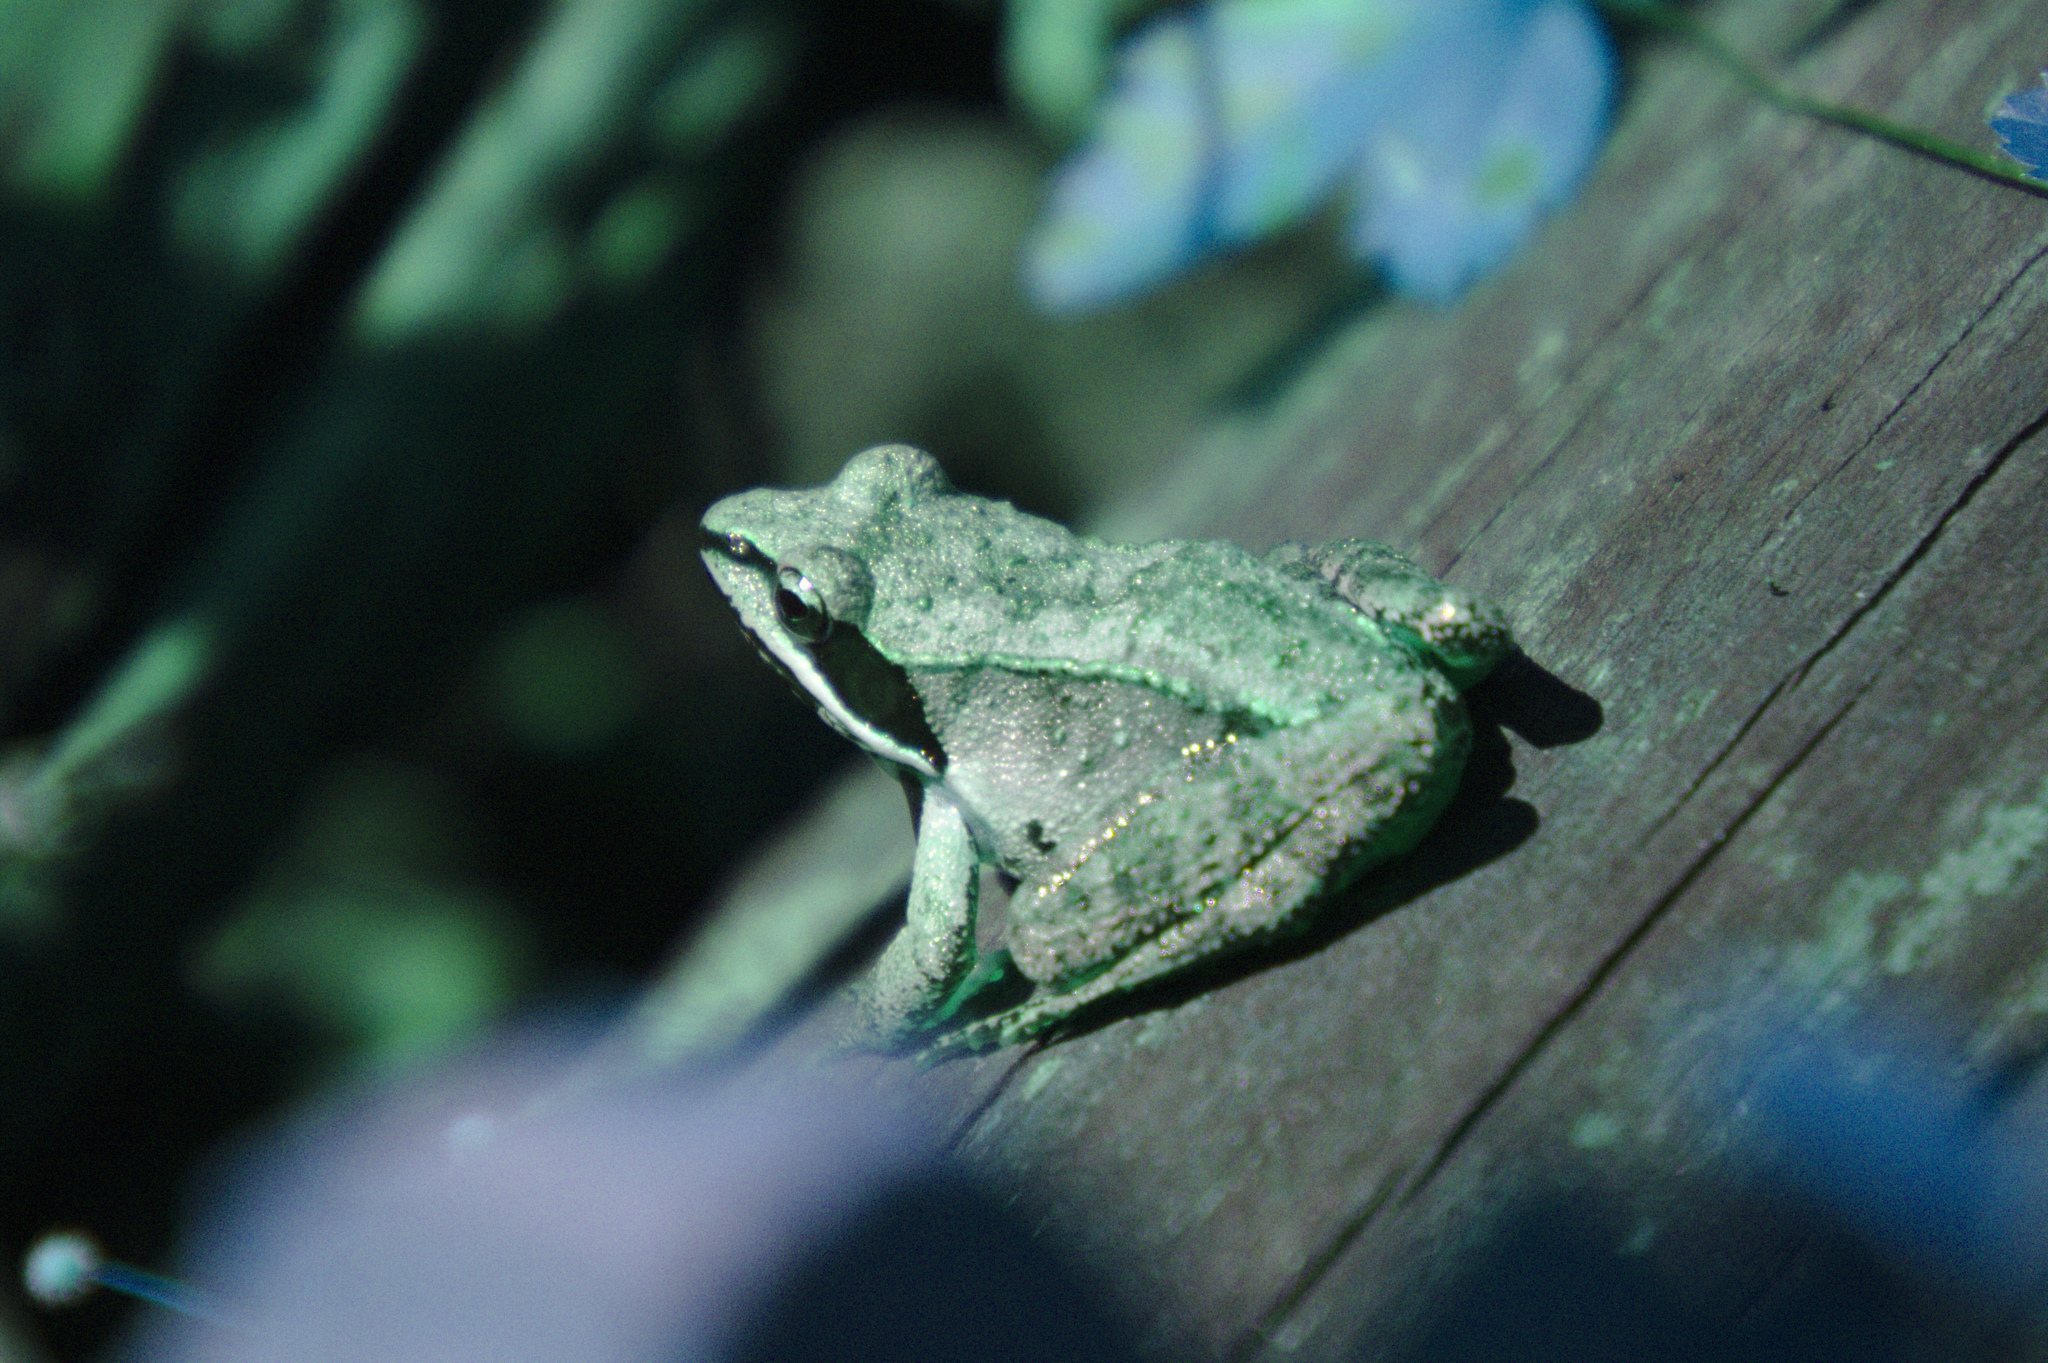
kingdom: Animalia
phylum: Chordata
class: Amphibia
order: Anura
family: Ranidae
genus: Lithobates
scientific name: Lithobates sylvaticus
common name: Wood frog
